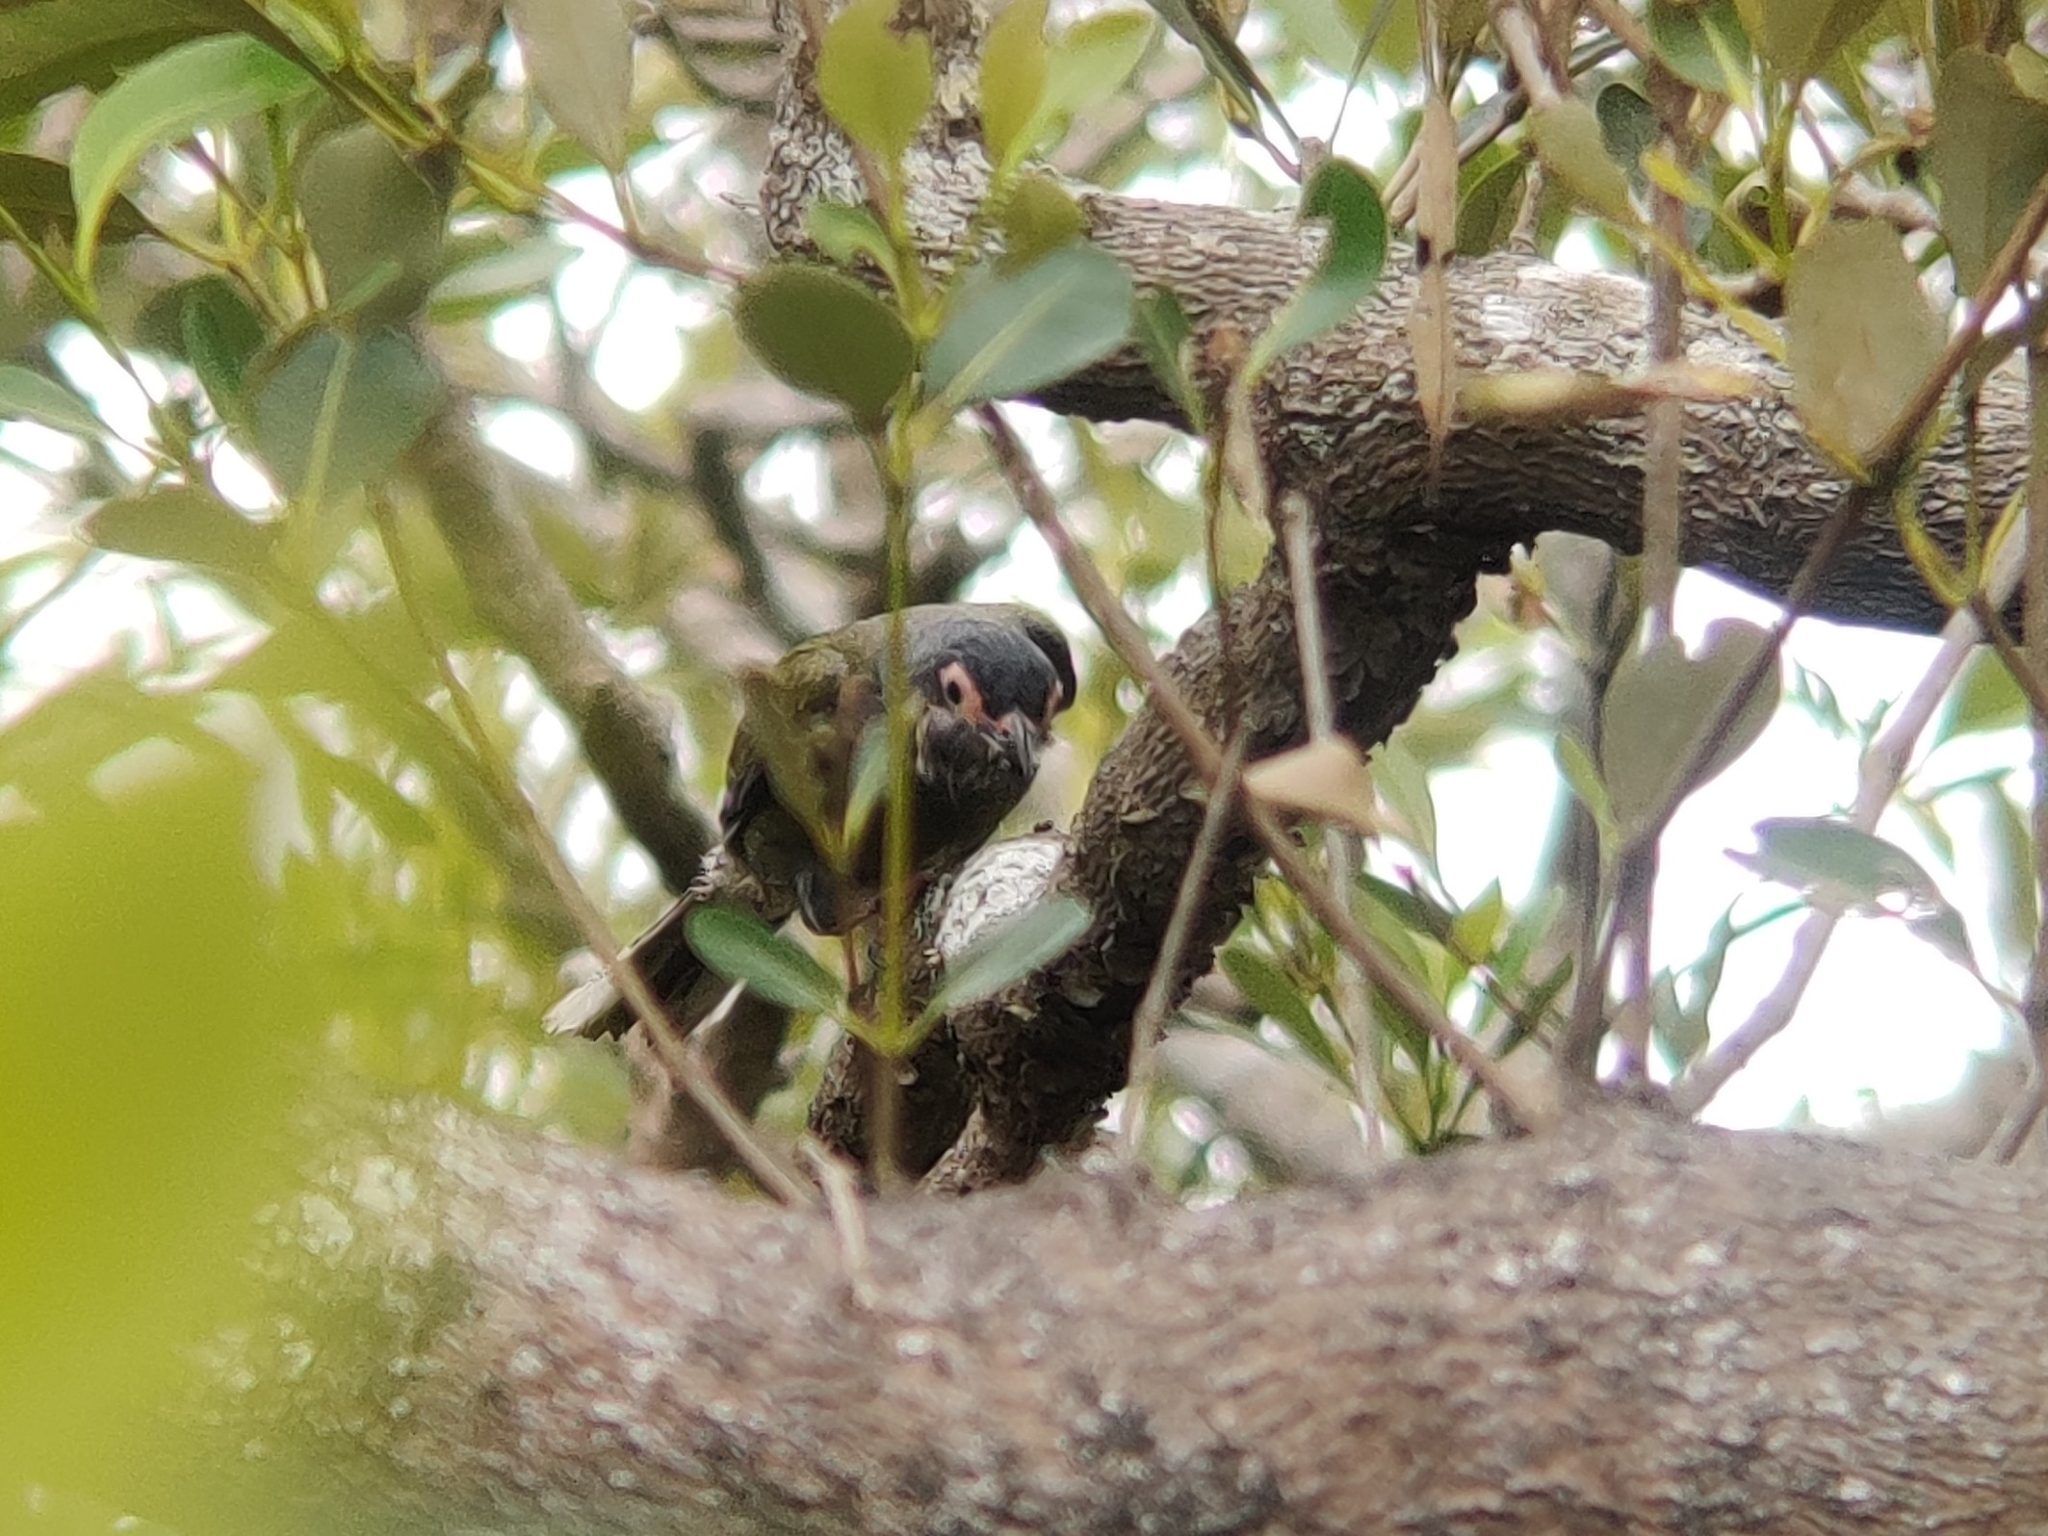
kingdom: Animalia
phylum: Chordata
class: Aves
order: Passeriformes
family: Oriolidae
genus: Sphecotheres
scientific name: Sphecotheres vieilloti
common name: Australasian figbird
